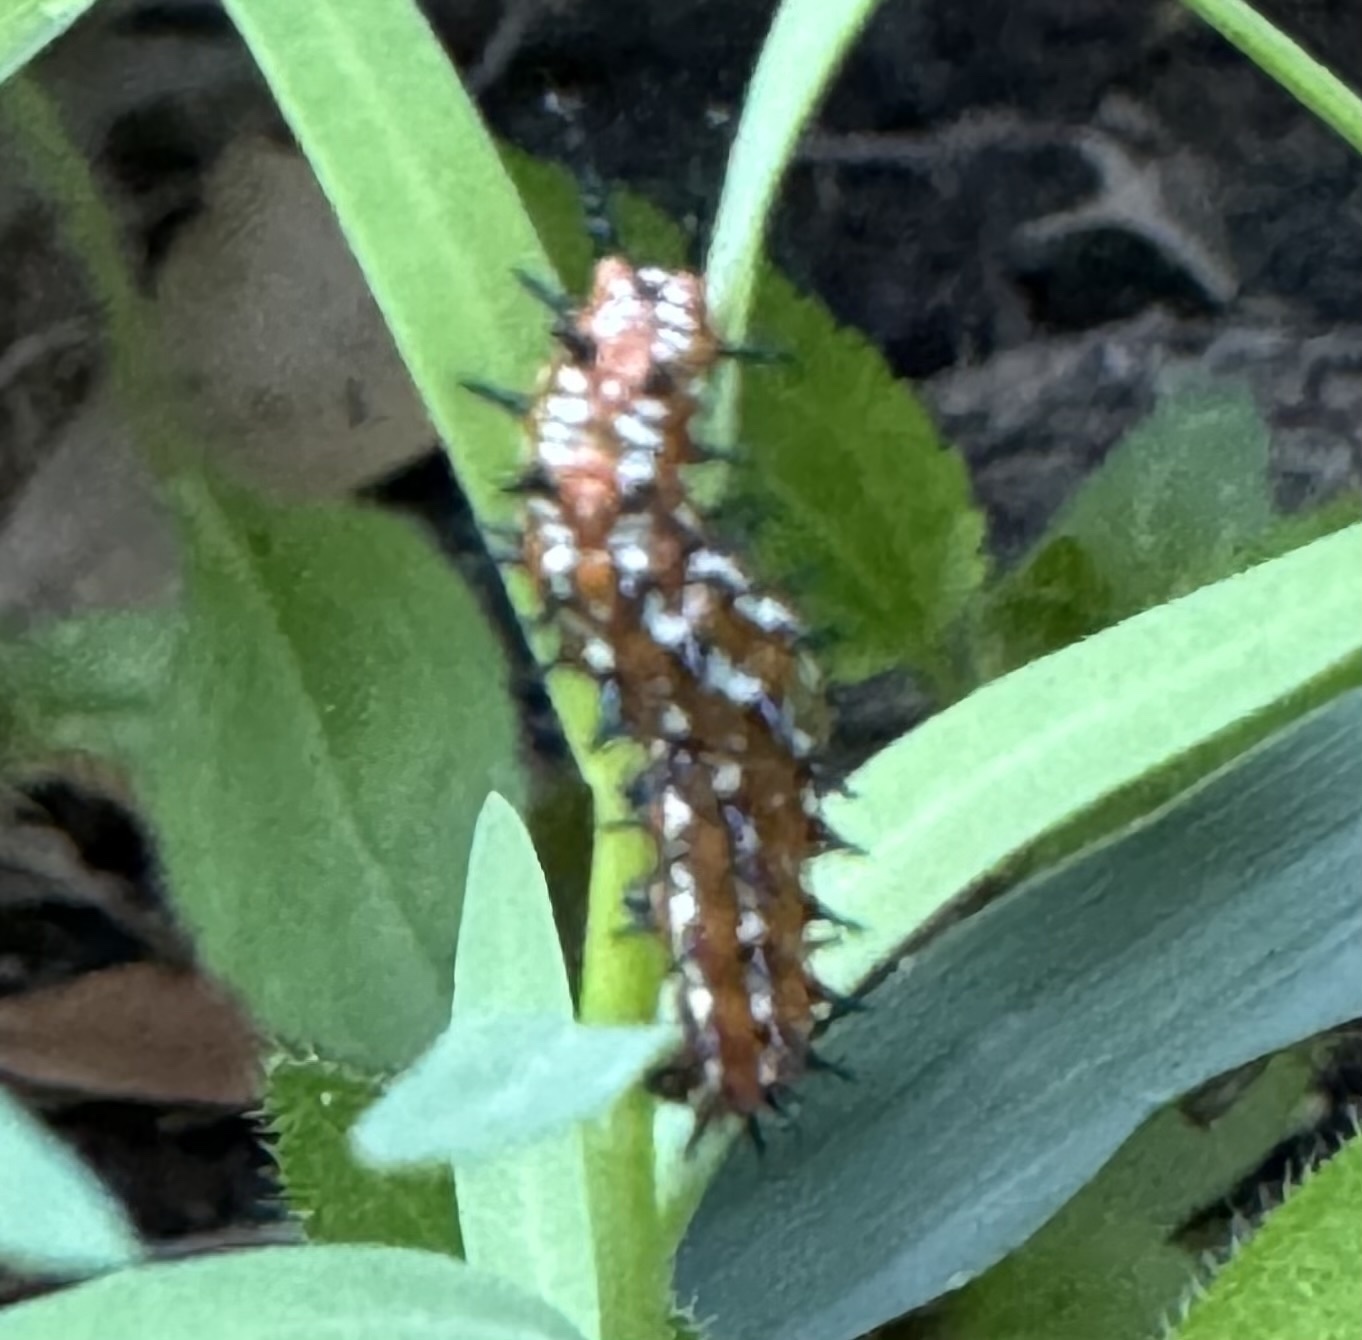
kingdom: Animalia
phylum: Arthropoda
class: Insecta
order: Lepidoptera
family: Nymphalidae
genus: Euptoieta
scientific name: Euptoieta claudia
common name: Variegated fritillary
